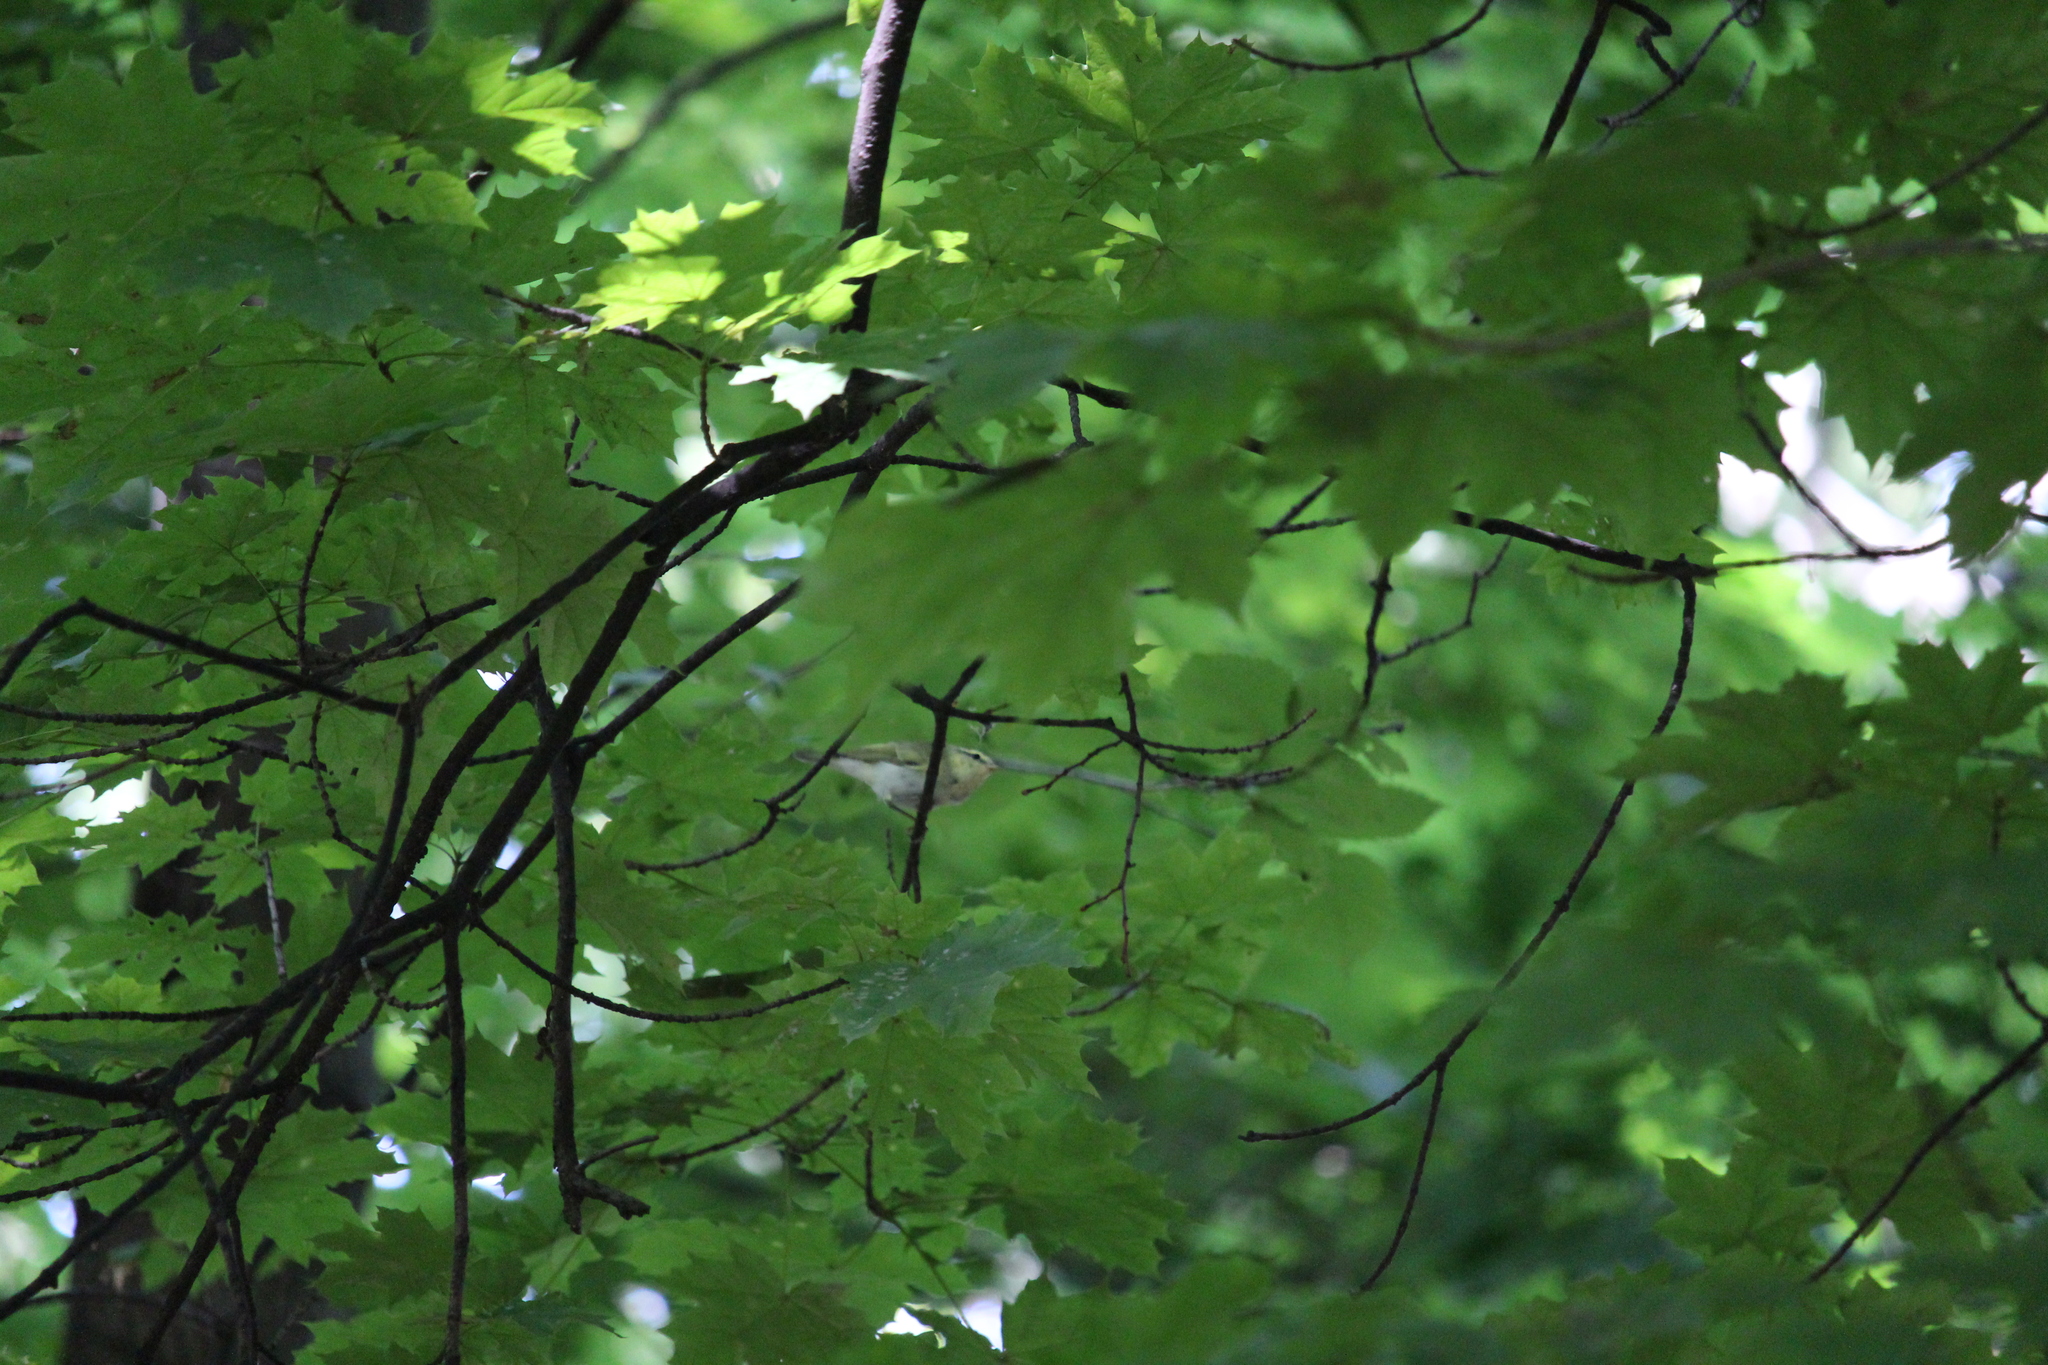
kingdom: Animalia
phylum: Chordata
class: Aves
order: Passeriformes
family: Phylloscopidae
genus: Phylloscopus
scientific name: Phylloscopus sibillatrix
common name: Wood warbler
